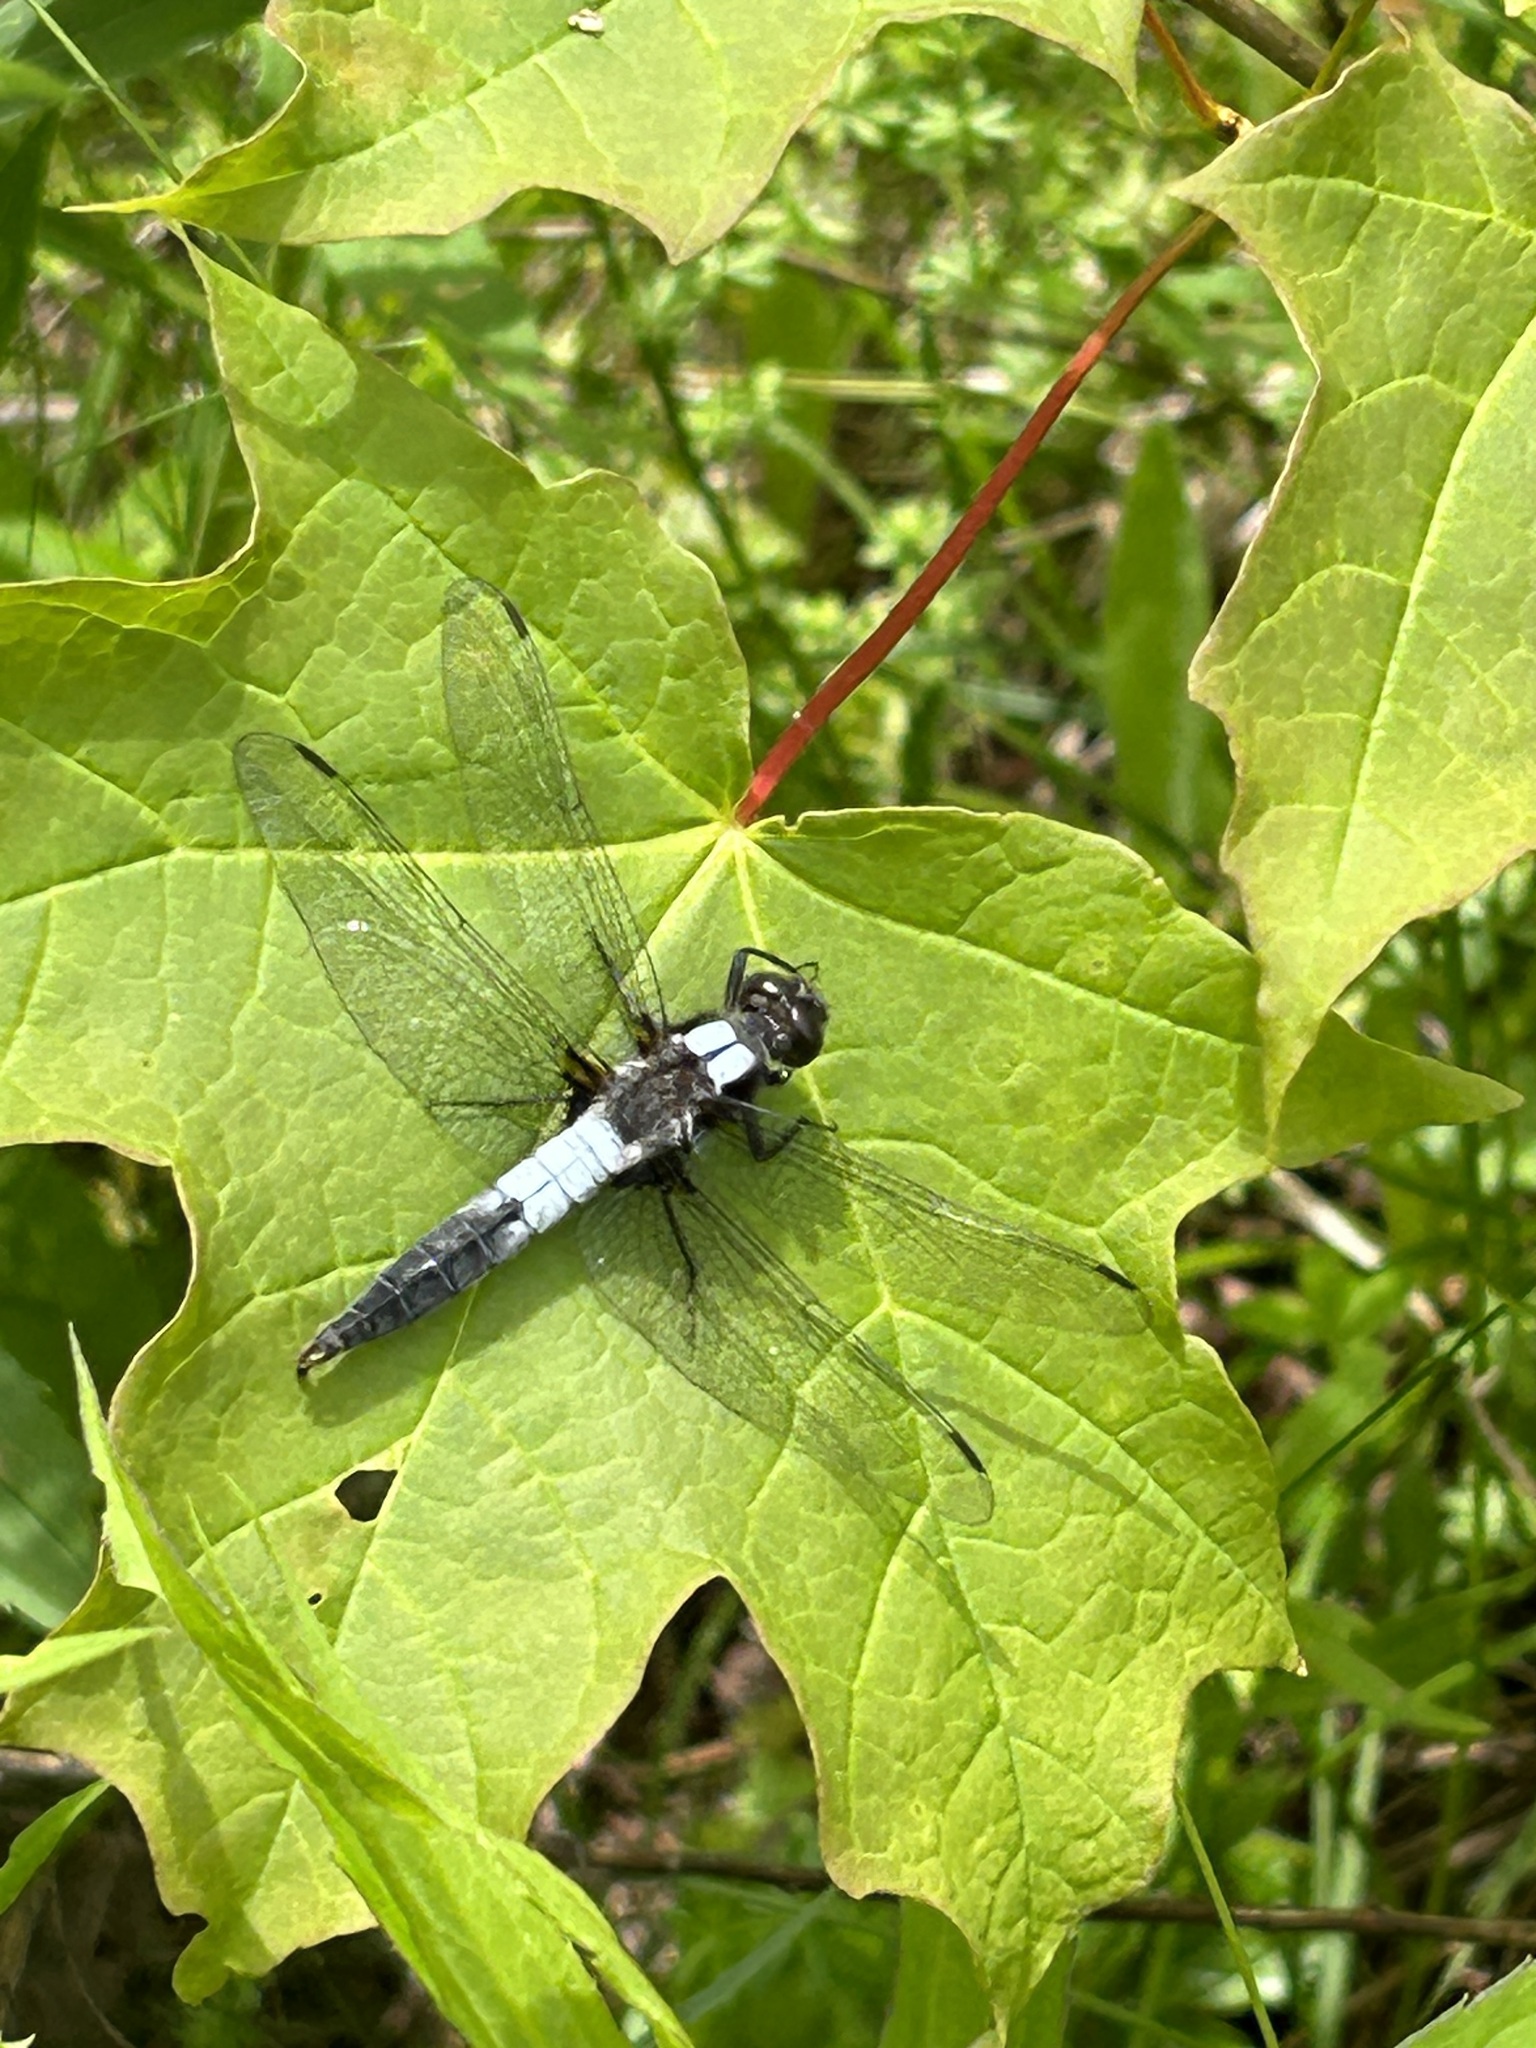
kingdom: Animalia
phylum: Arthropoda
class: Insecta
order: Odonata
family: Libellulidae
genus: Ladona
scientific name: Ladona julia
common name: Chalk-fronted corporal
